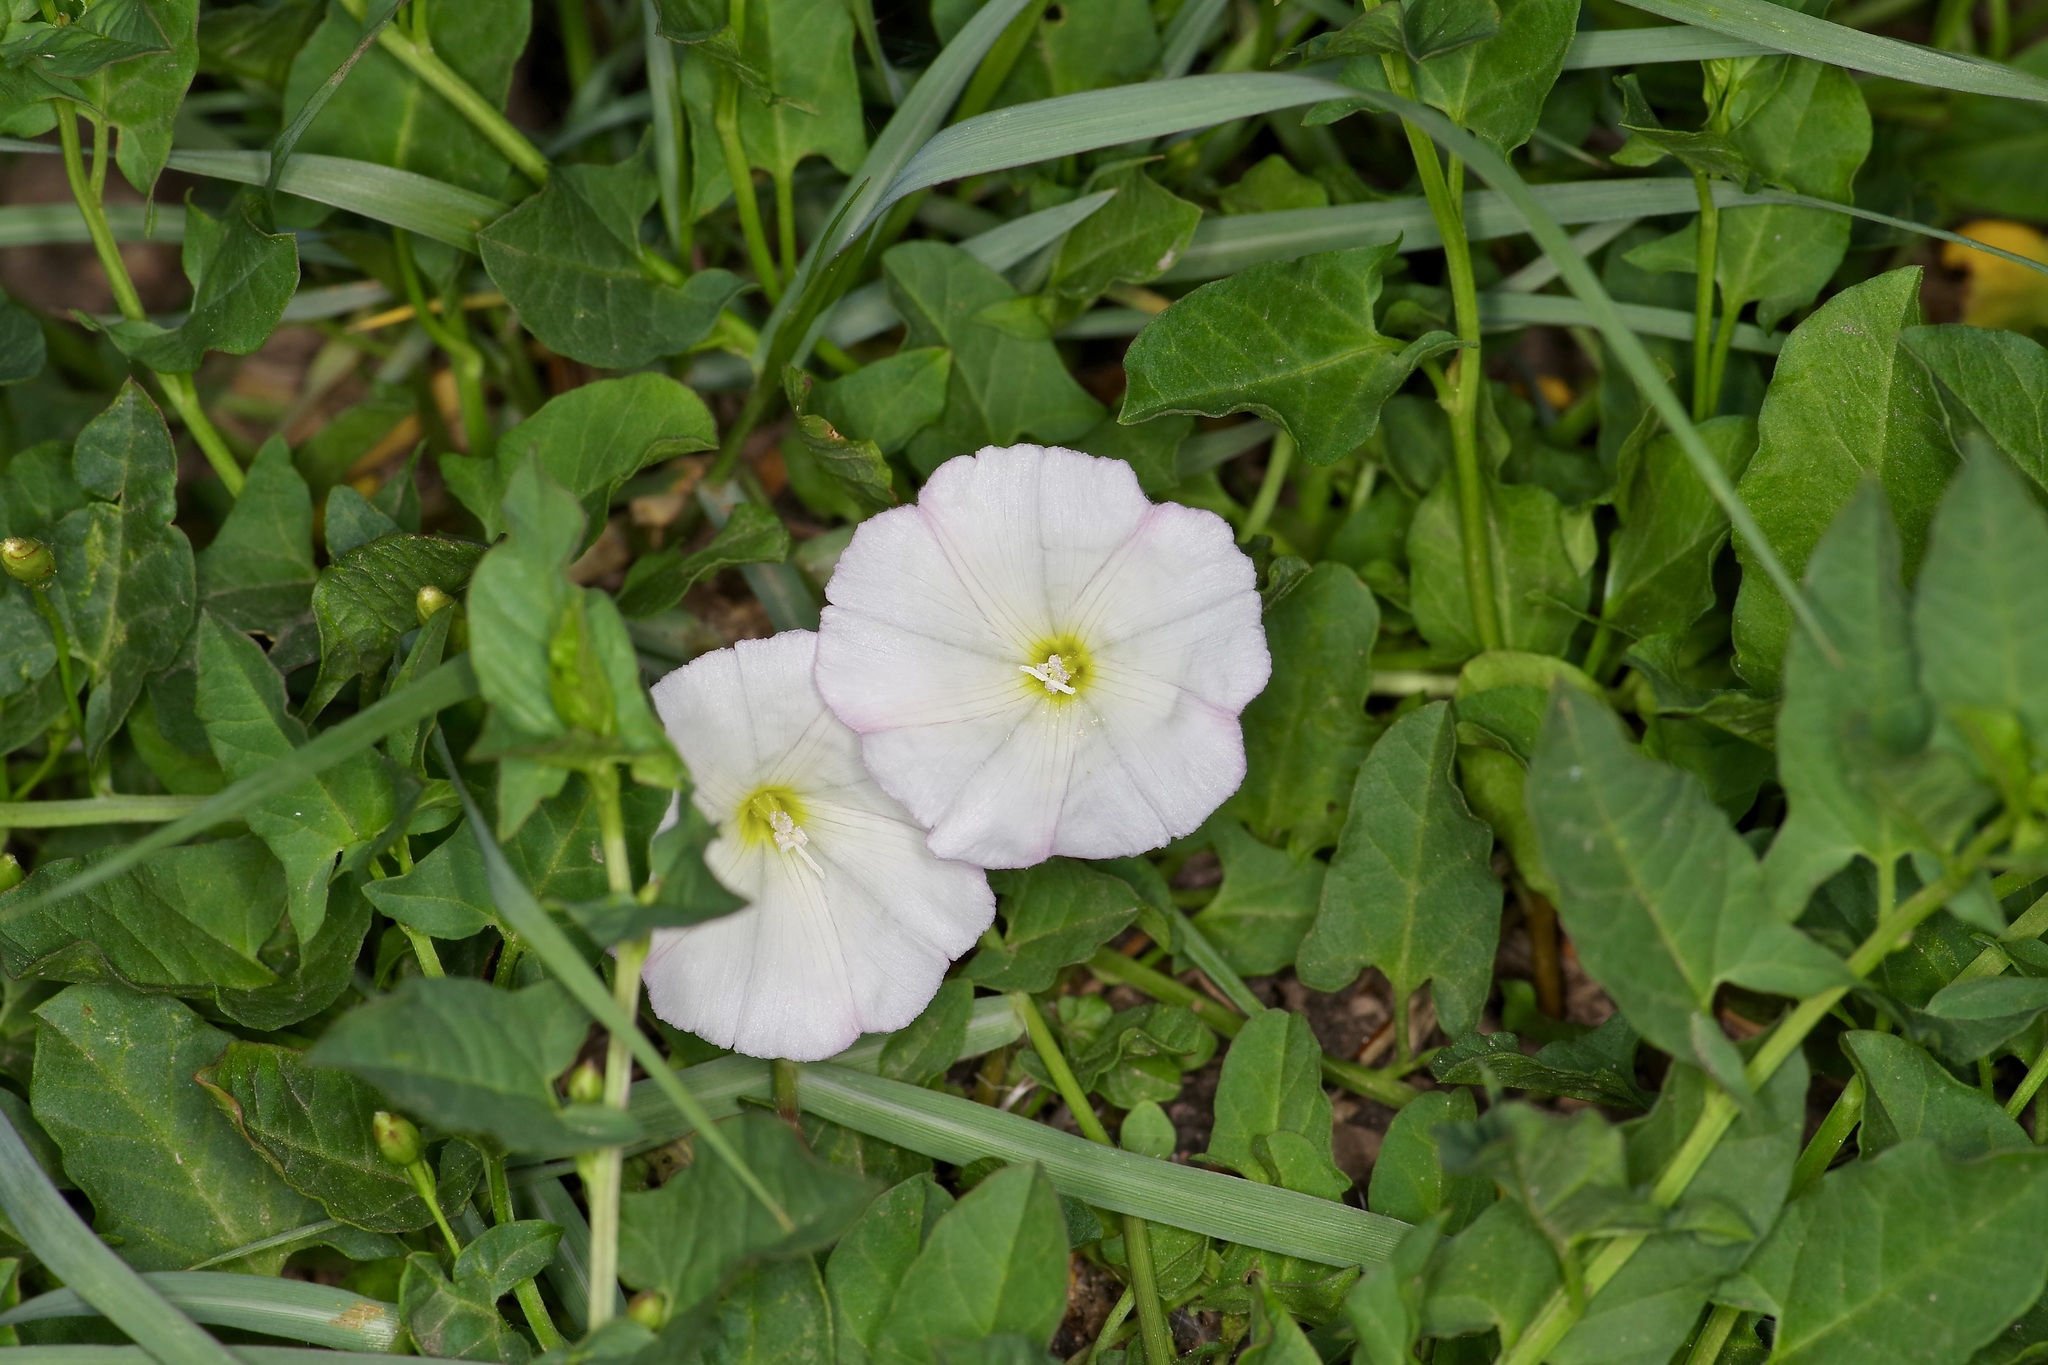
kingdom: Plantae
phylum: Tracheophyta
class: Magnoliopsida
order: Solanales
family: Convolvulaceae
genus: Convolvulus
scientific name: Convolvulus arvensis
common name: Field bindweed
